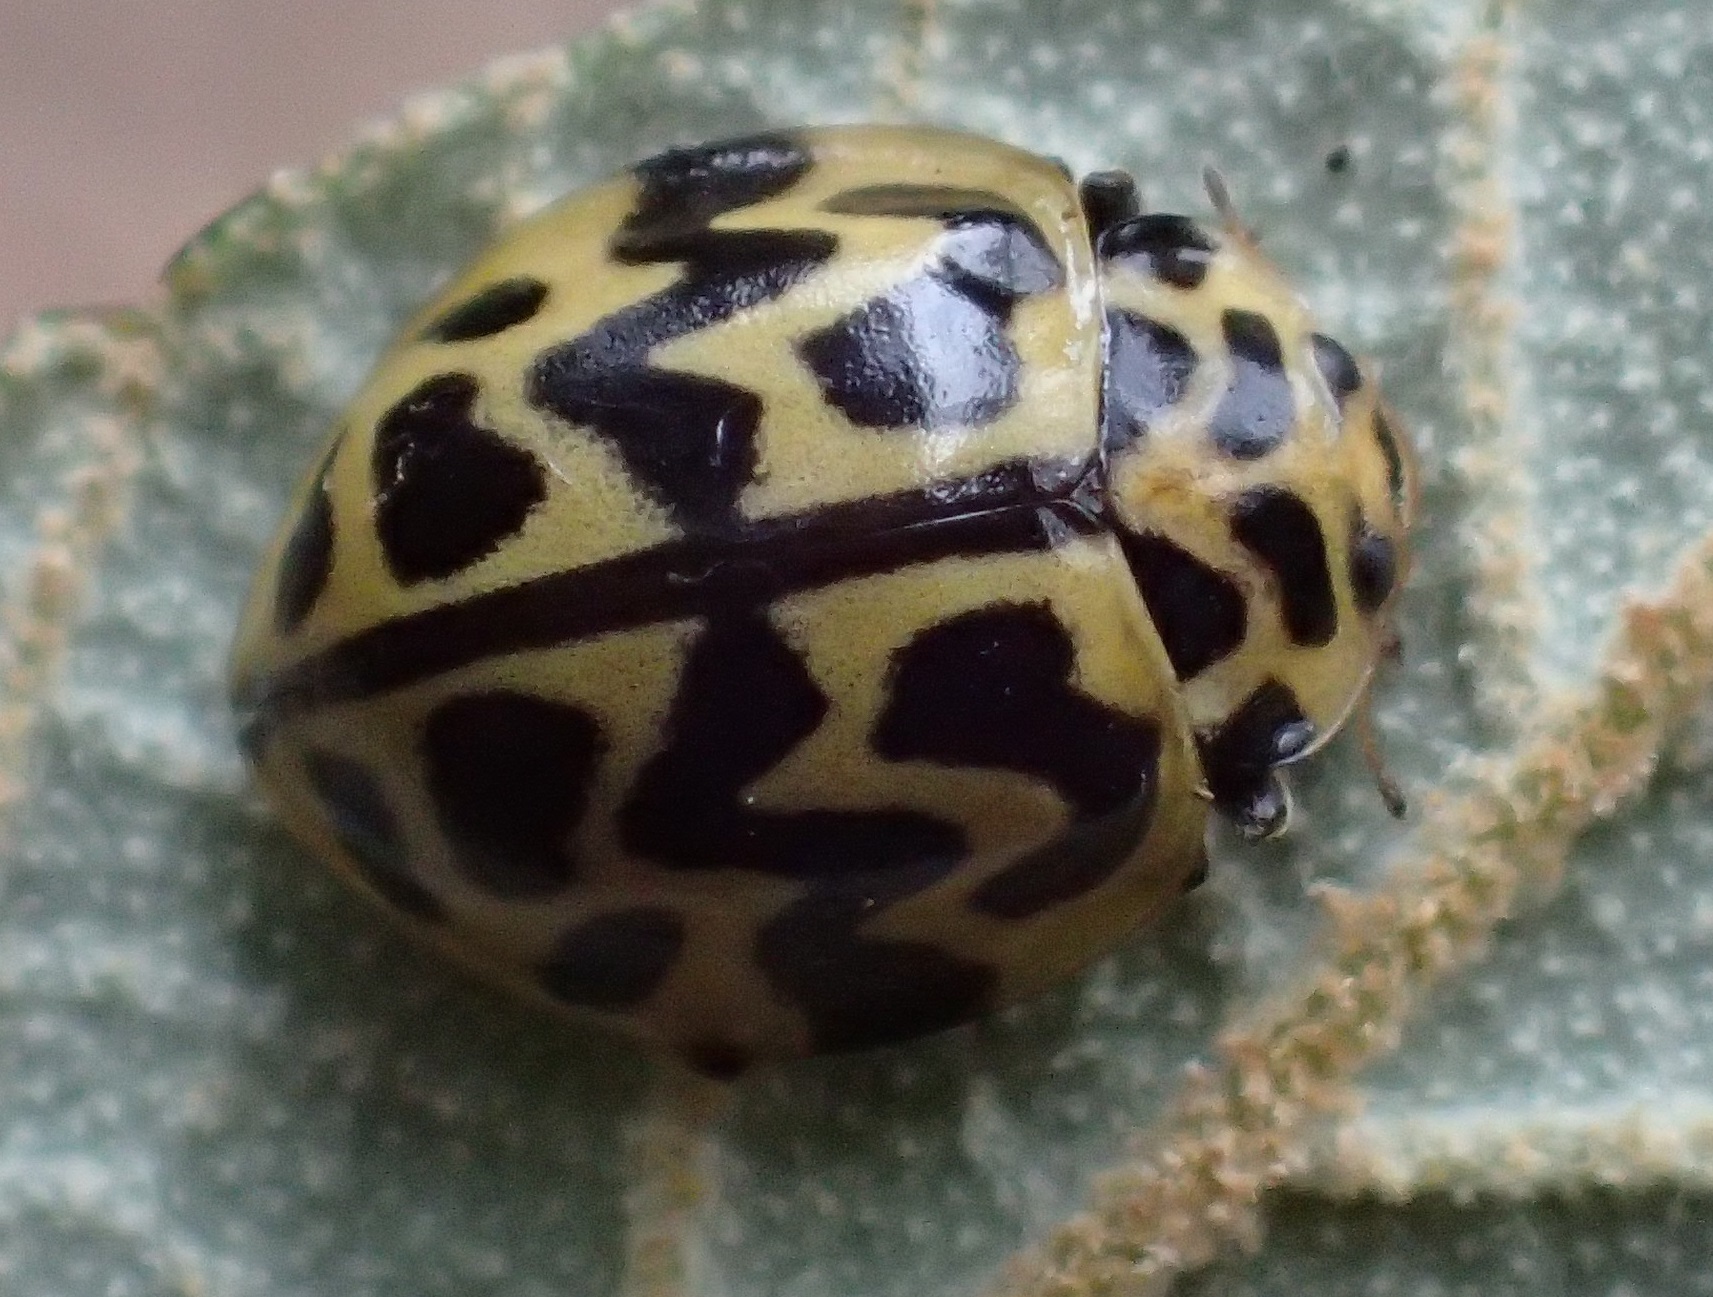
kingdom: Animalia
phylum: Arthropoda
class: Insecta
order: Coleoptera
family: Coccinellidae
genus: Cleobora
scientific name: Cleobora
